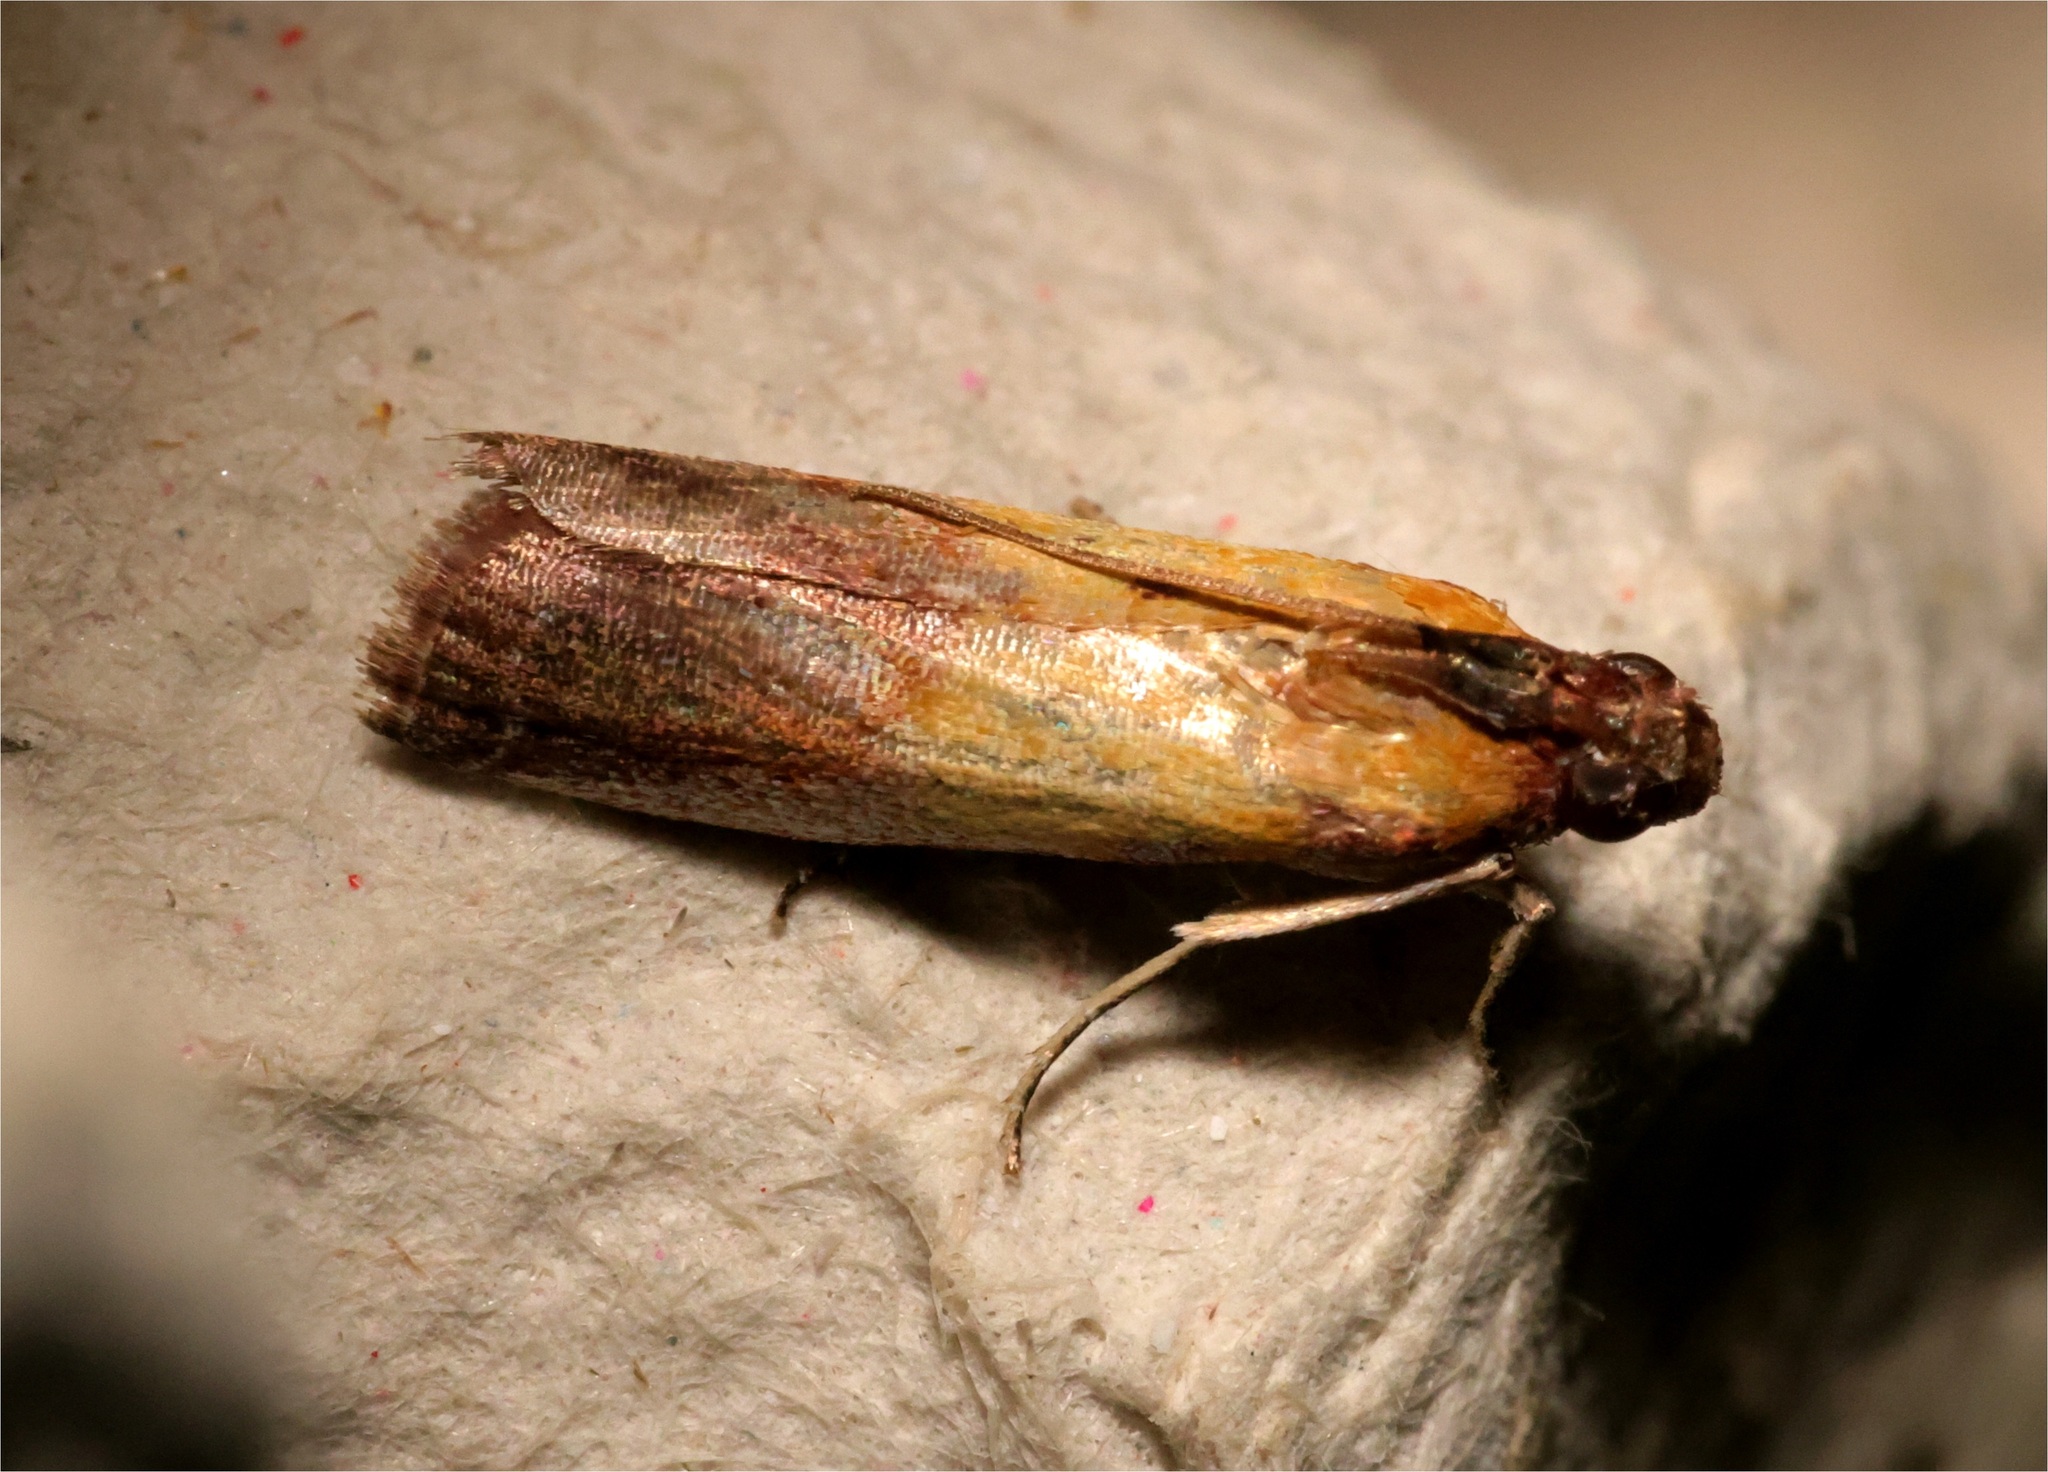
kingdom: Animalia
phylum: Arthropoda
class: Insecta
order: Lepidoptera
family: Pyralidae
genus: Piesmopoda
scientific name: Piesmopoda
